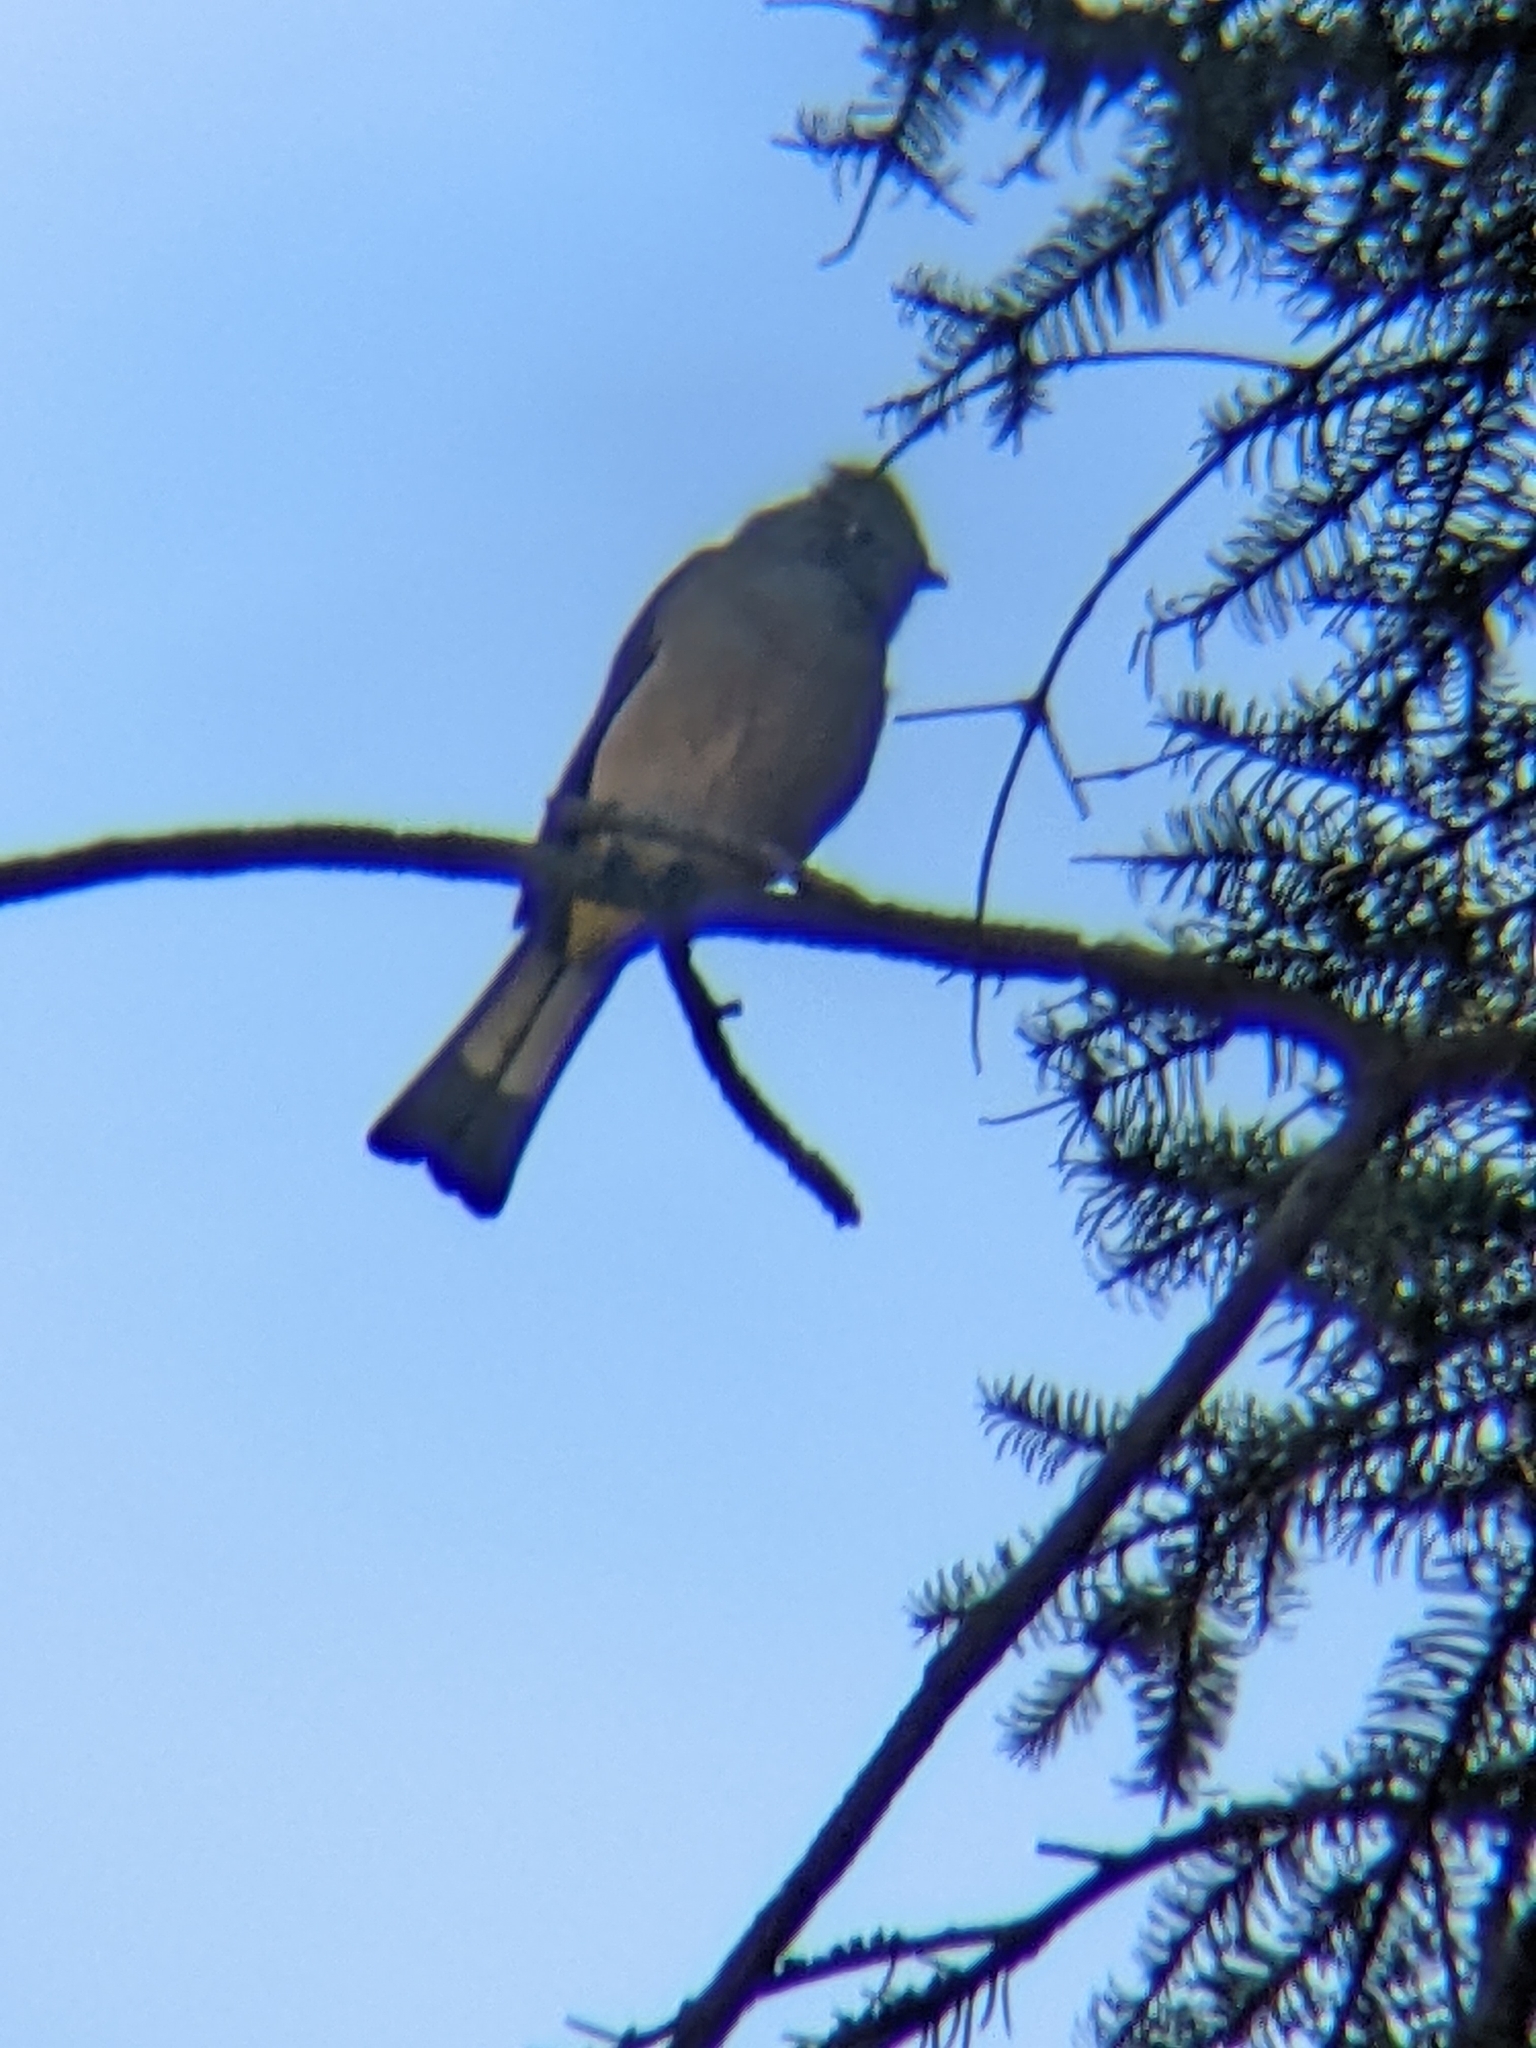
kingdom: Animalia
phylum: Chordata
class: Aves
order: Passeriformes
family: Ptilogonatidae
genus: Ptilogonys
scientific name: Ptilogonys cinereus
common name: Gray silky-flycatcher
